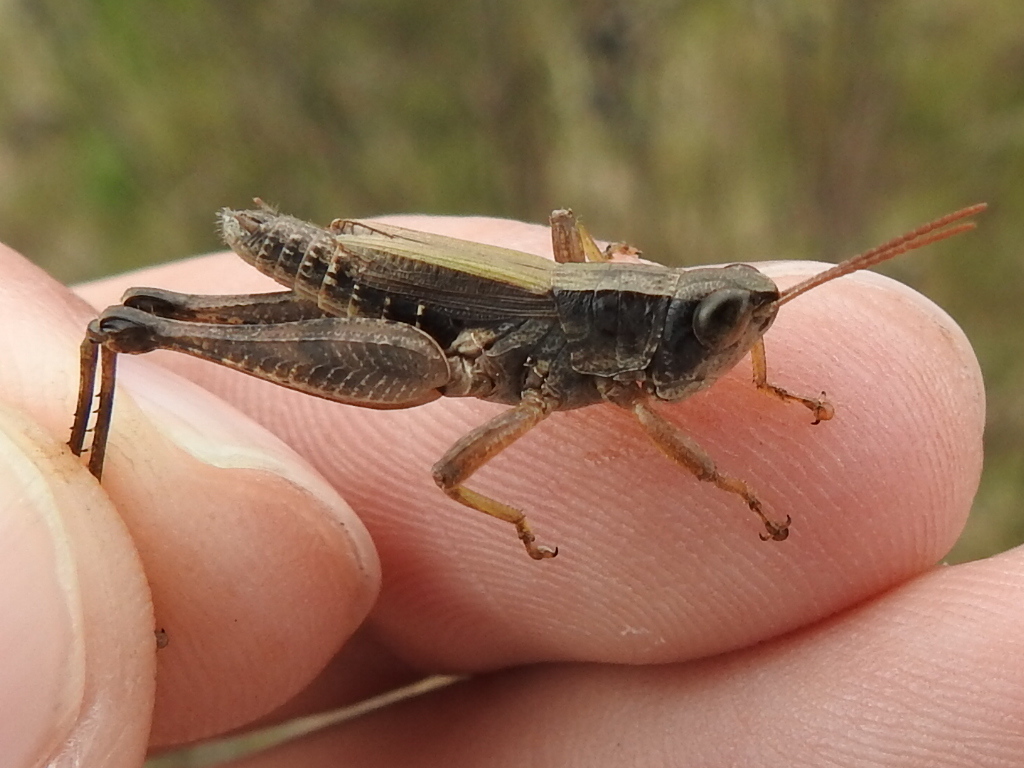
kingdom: Animalia
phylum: Arthropoda
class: Insecta
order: Orthoptera
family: Acrididae
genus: Dichromorpha
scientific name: Dichromorpha viridis
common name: Short-winged green grasshopper
